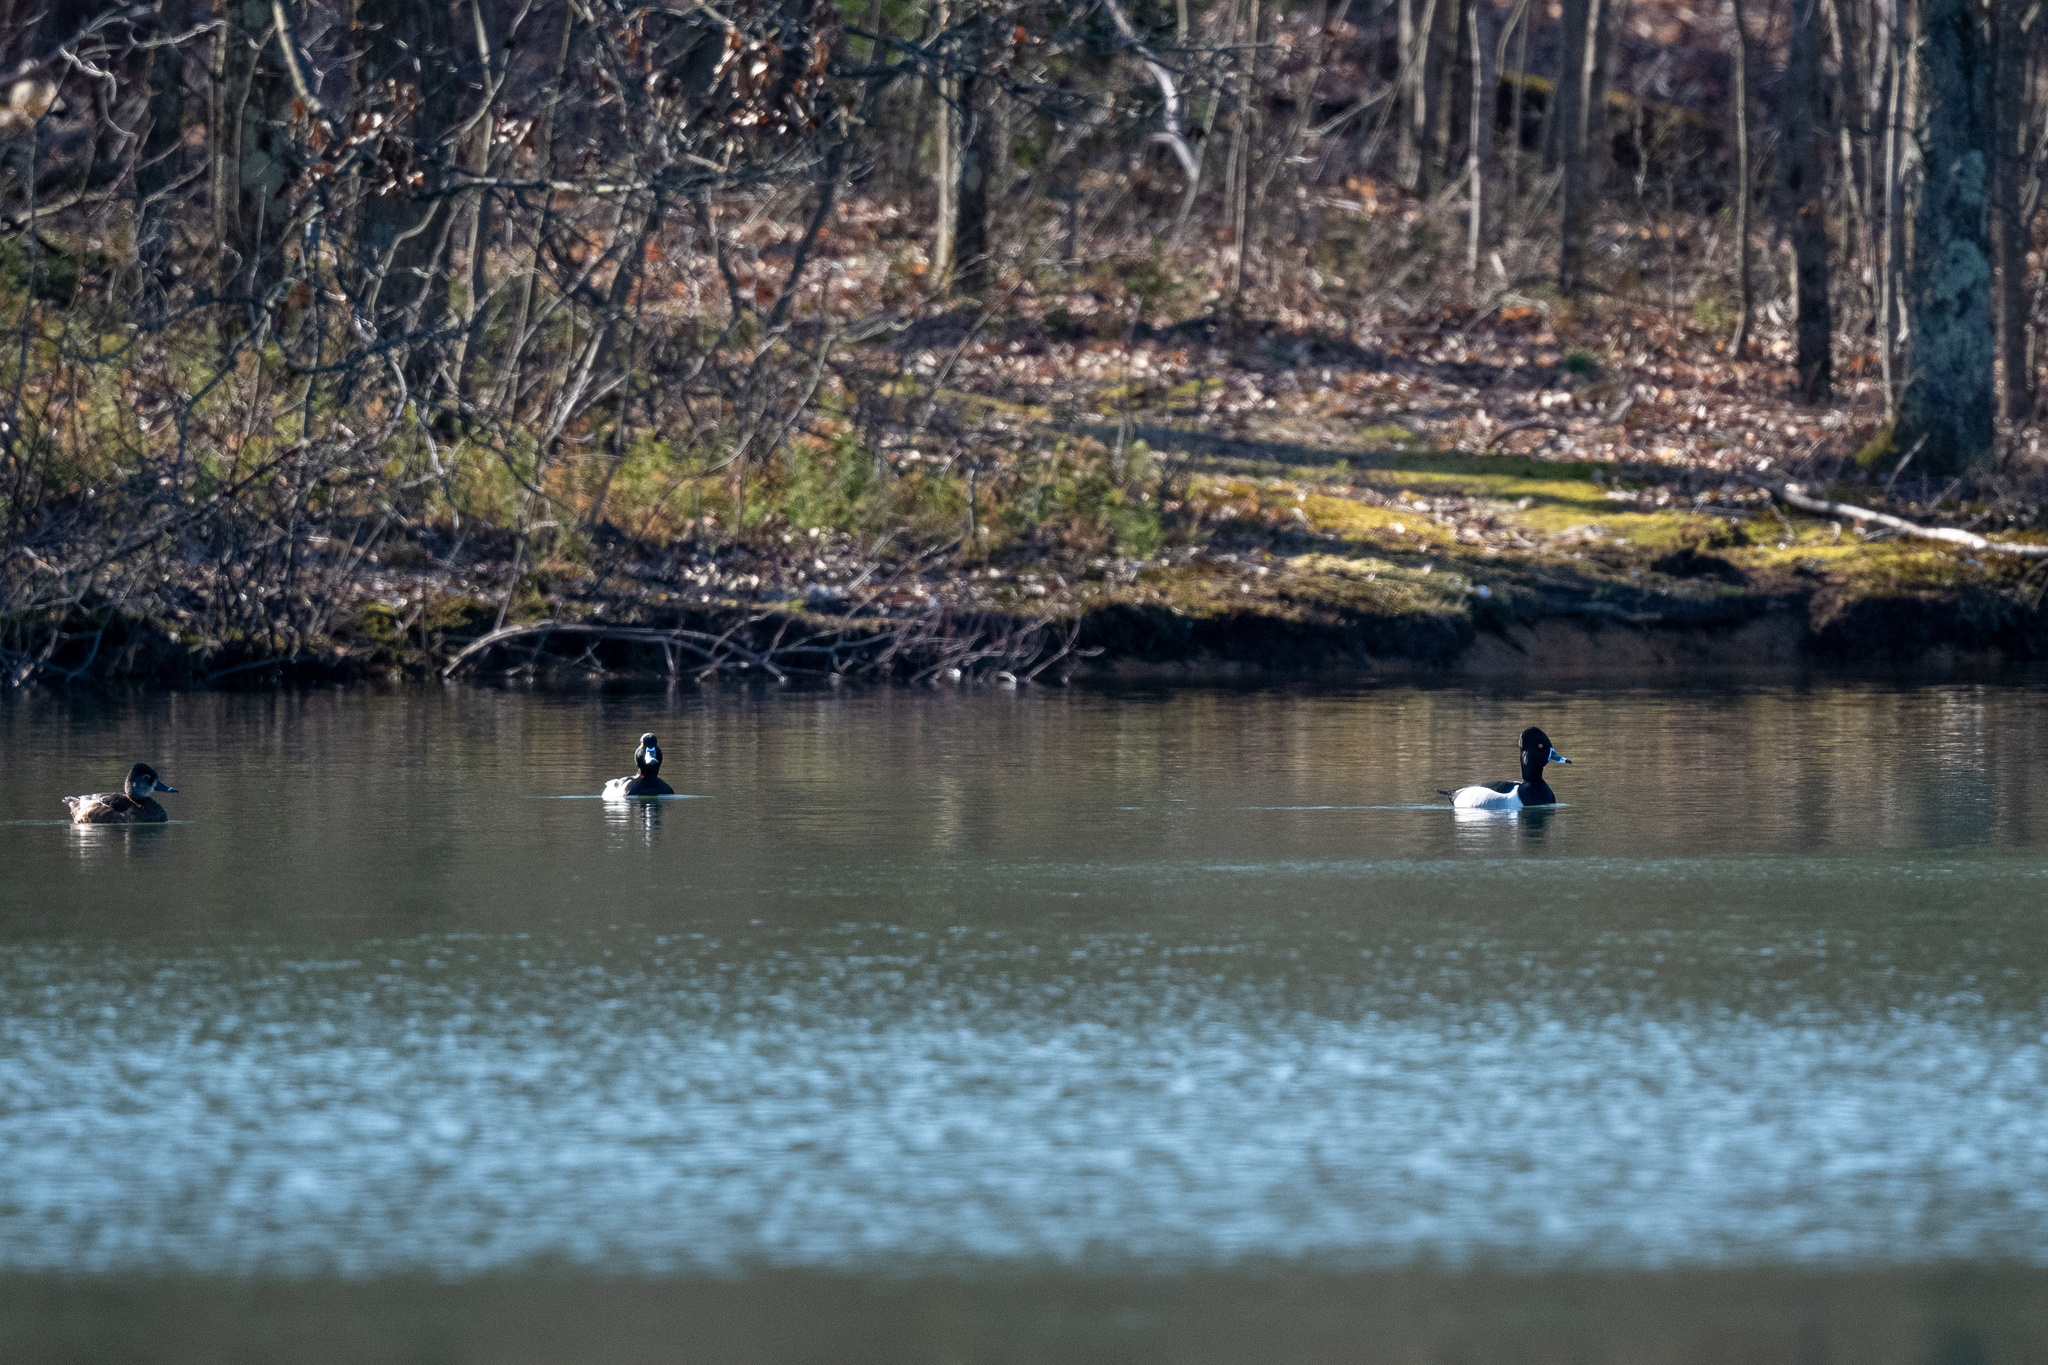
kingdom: Animalia
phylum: Chordata
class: Aves
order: Anseriformes
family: Anatidae
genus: Aythya
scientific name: Aythya collaris
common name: Ring-necked duck
